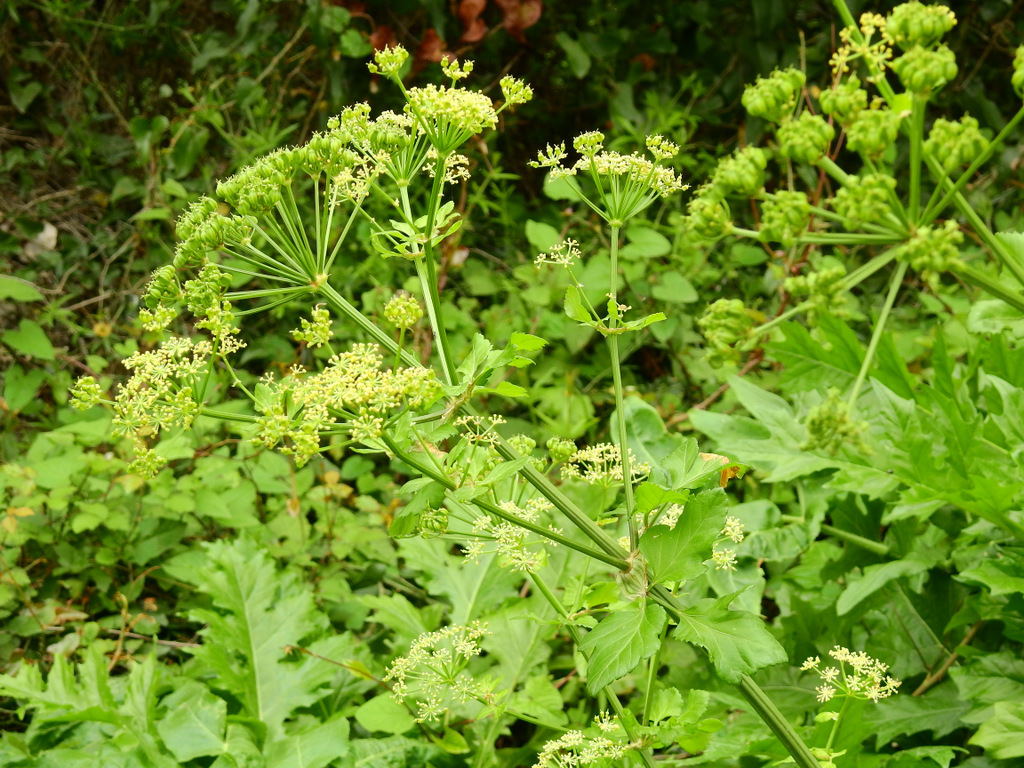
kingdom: Plantae
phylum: Tracheophyta
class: Magnoliopsida
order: Apiales
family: Apiaceae
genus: Smyrnium
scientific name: Smyrnium olusatrum
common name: Alexanders
